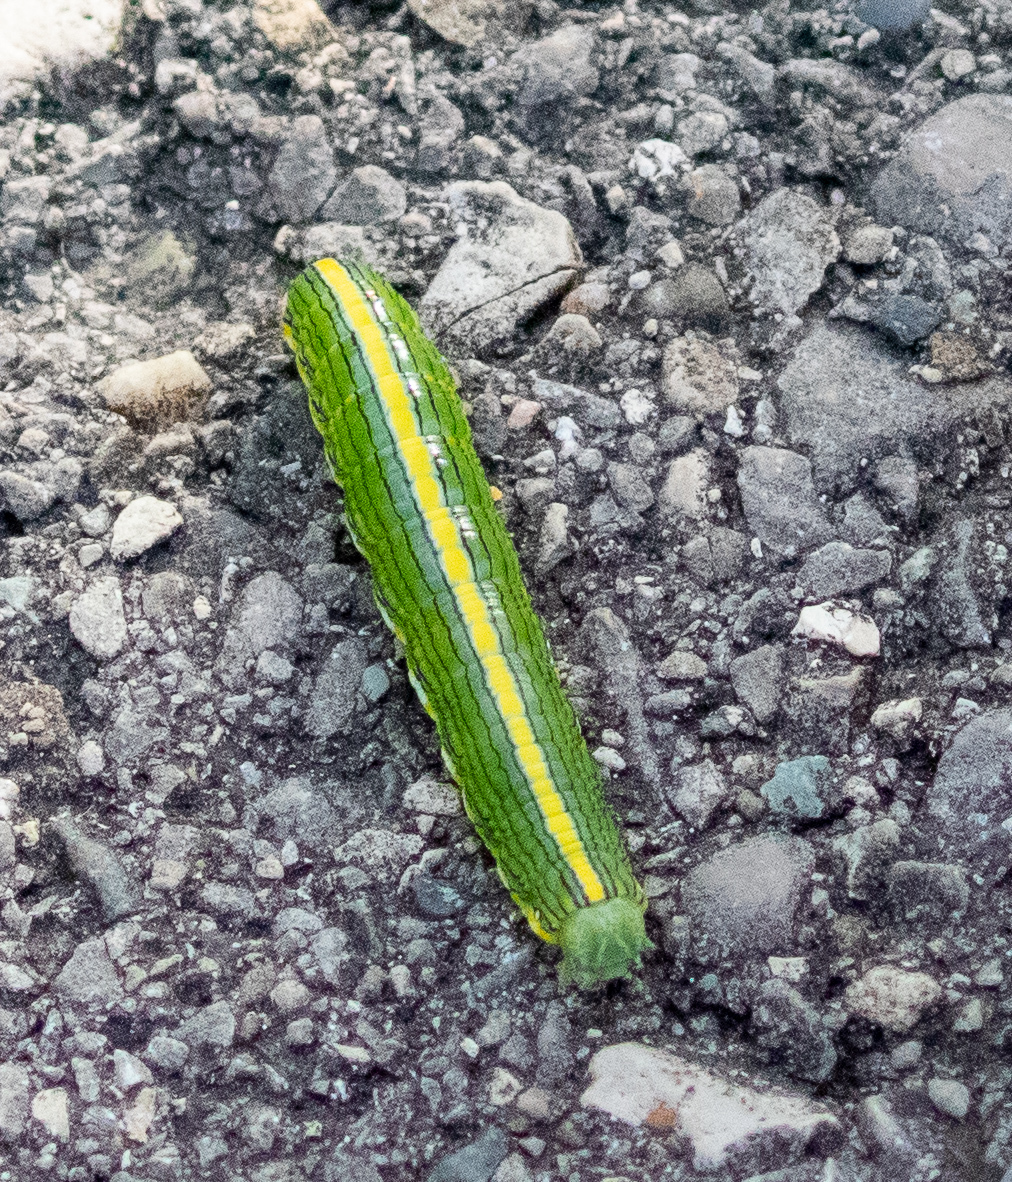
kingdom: Animalia
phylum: Arthropoda
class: Insecta
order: Lepidoptera
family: Noctuidae
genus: Cucullia
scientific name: Cucullia asteroides
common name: Asteroid moth
